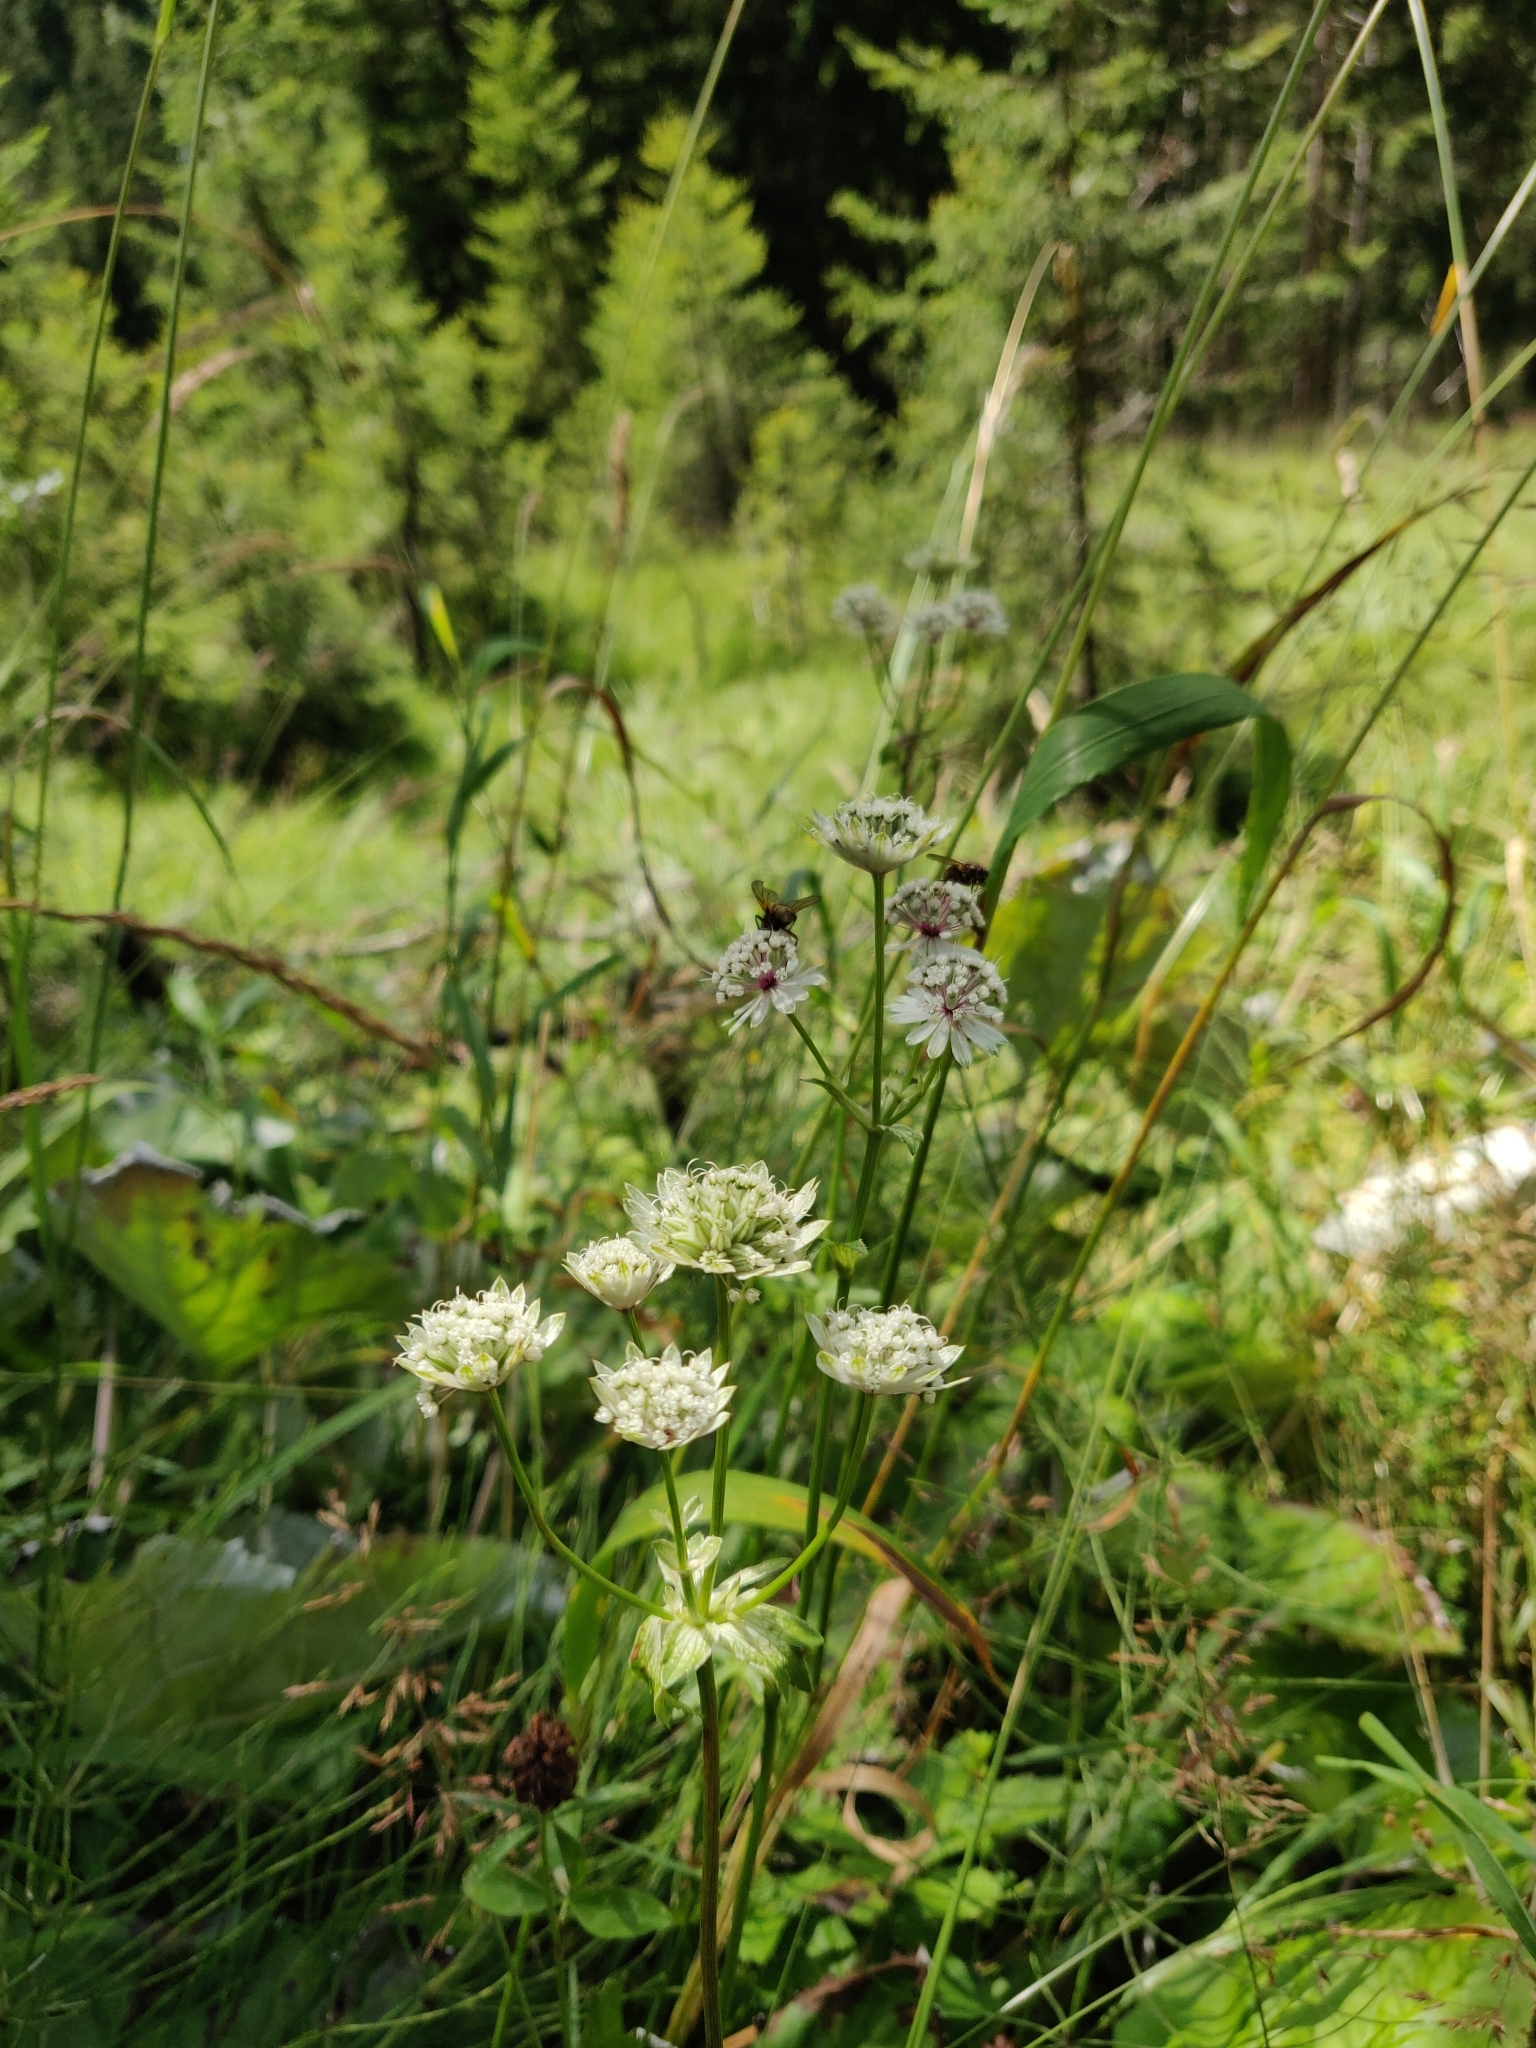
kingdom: Plantae
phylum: Tracheophyta
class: Magnoliopsida
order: Apiales
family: Apiaceae
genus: Astrantia
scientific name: Astrantia major
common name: Greater masterwort
